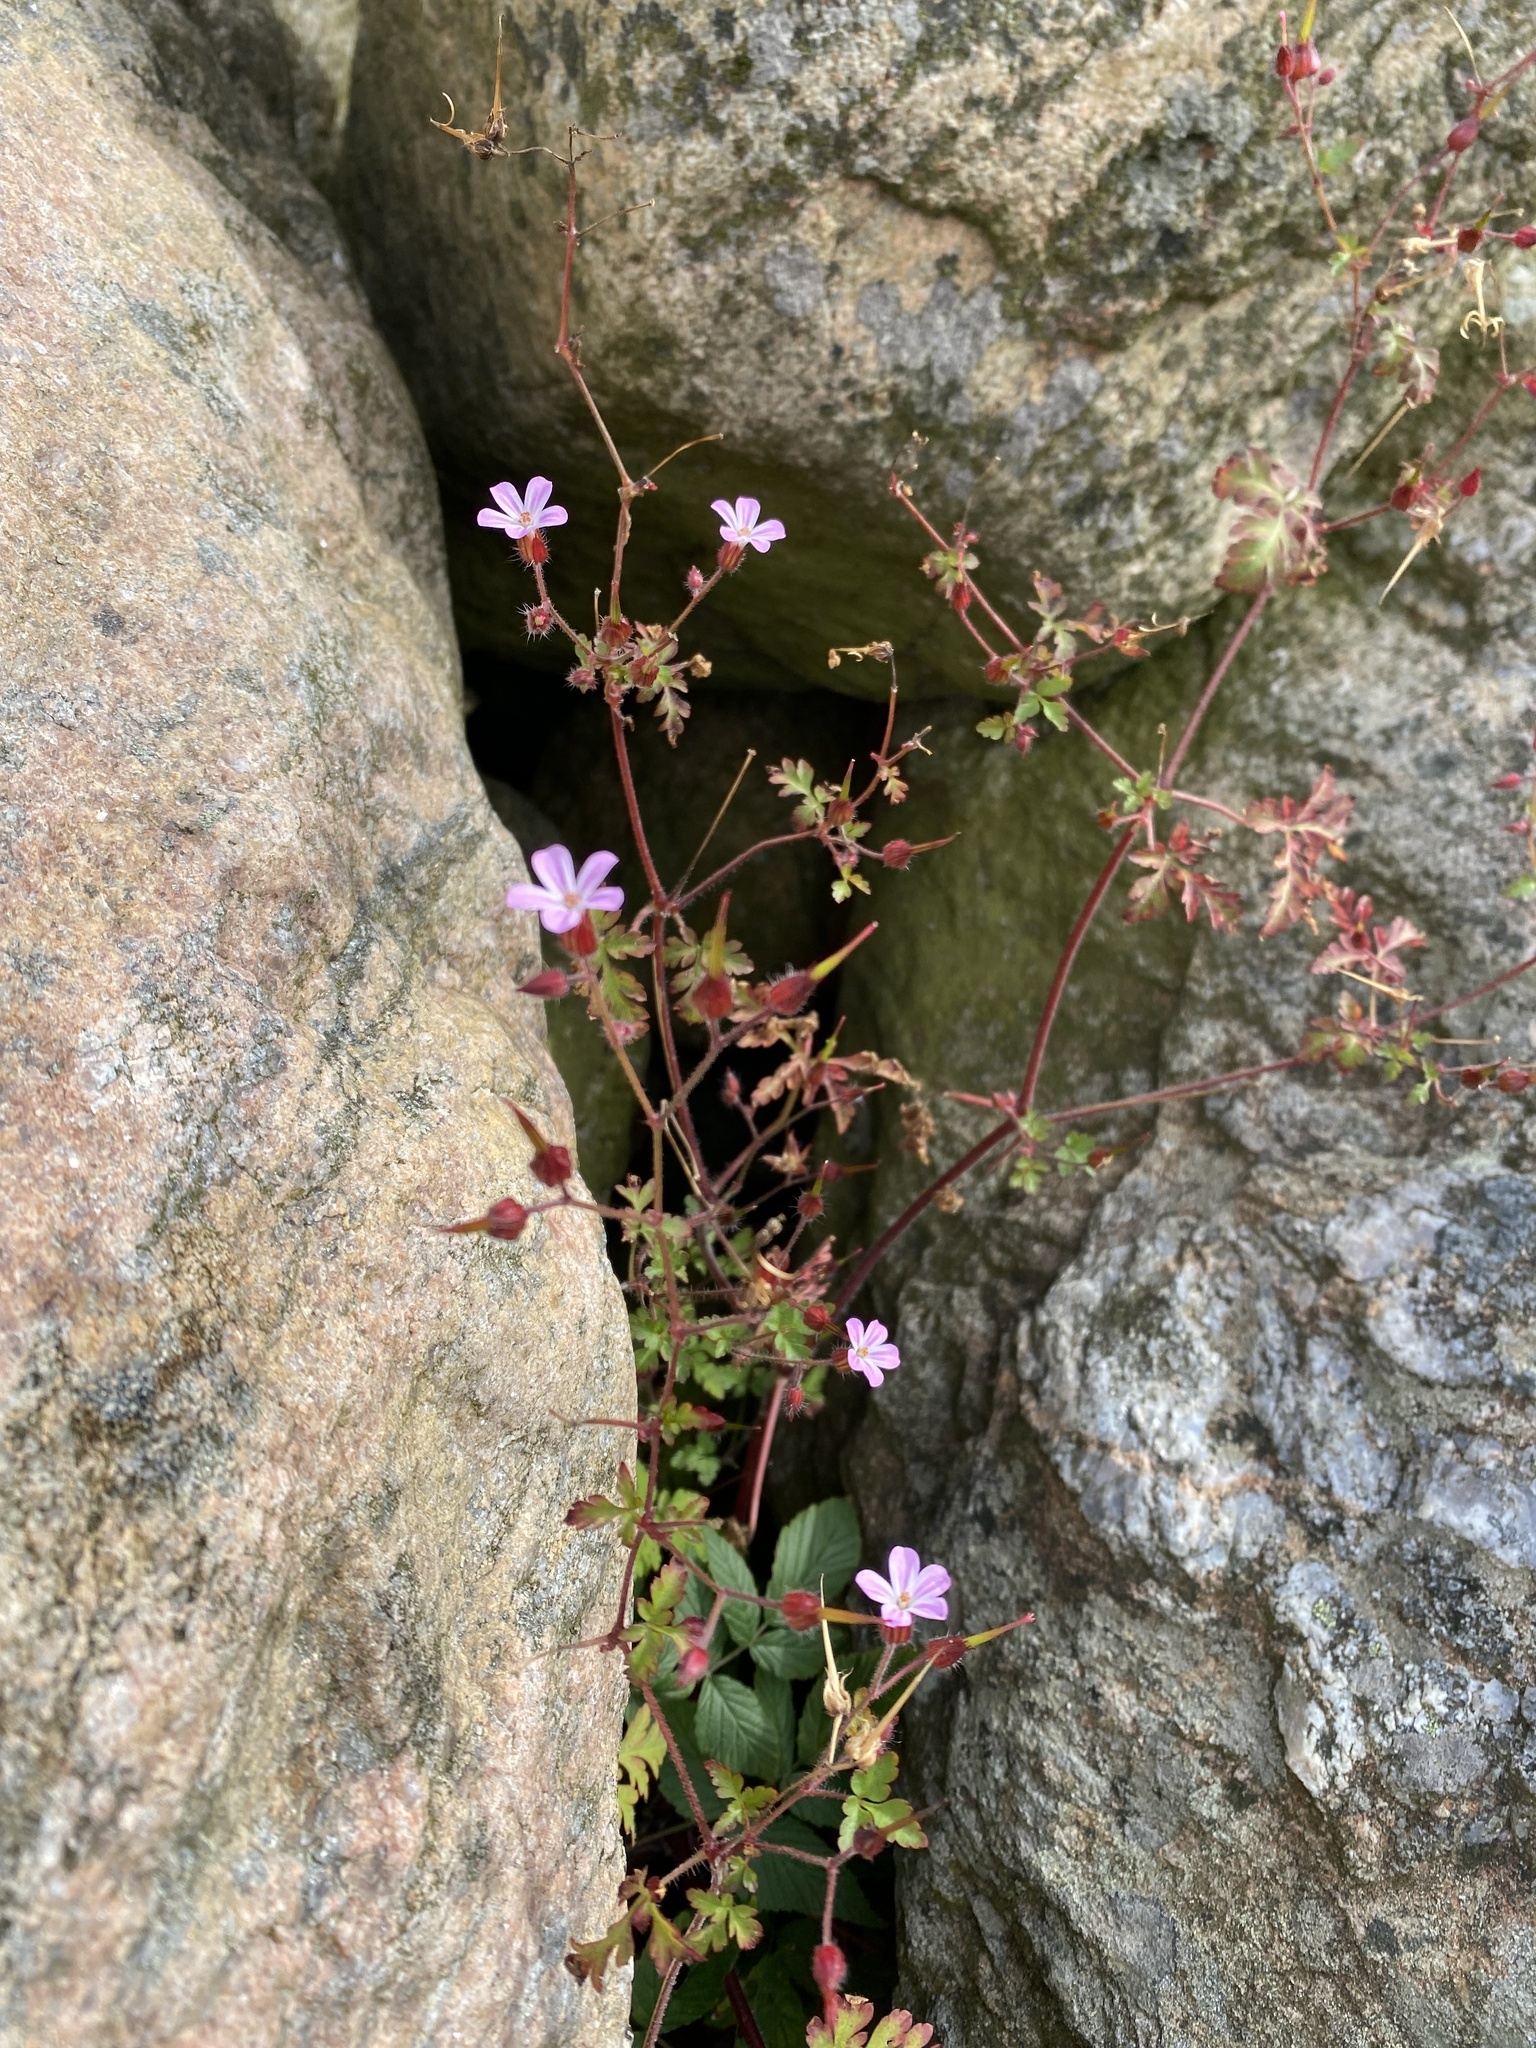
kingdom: Plantae
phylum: Tracheophyta
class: Magnoliopsida
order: Geraniales
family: Geraniaceae
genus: Geranium
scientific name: Geranium robertianum
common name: Herb-robert
